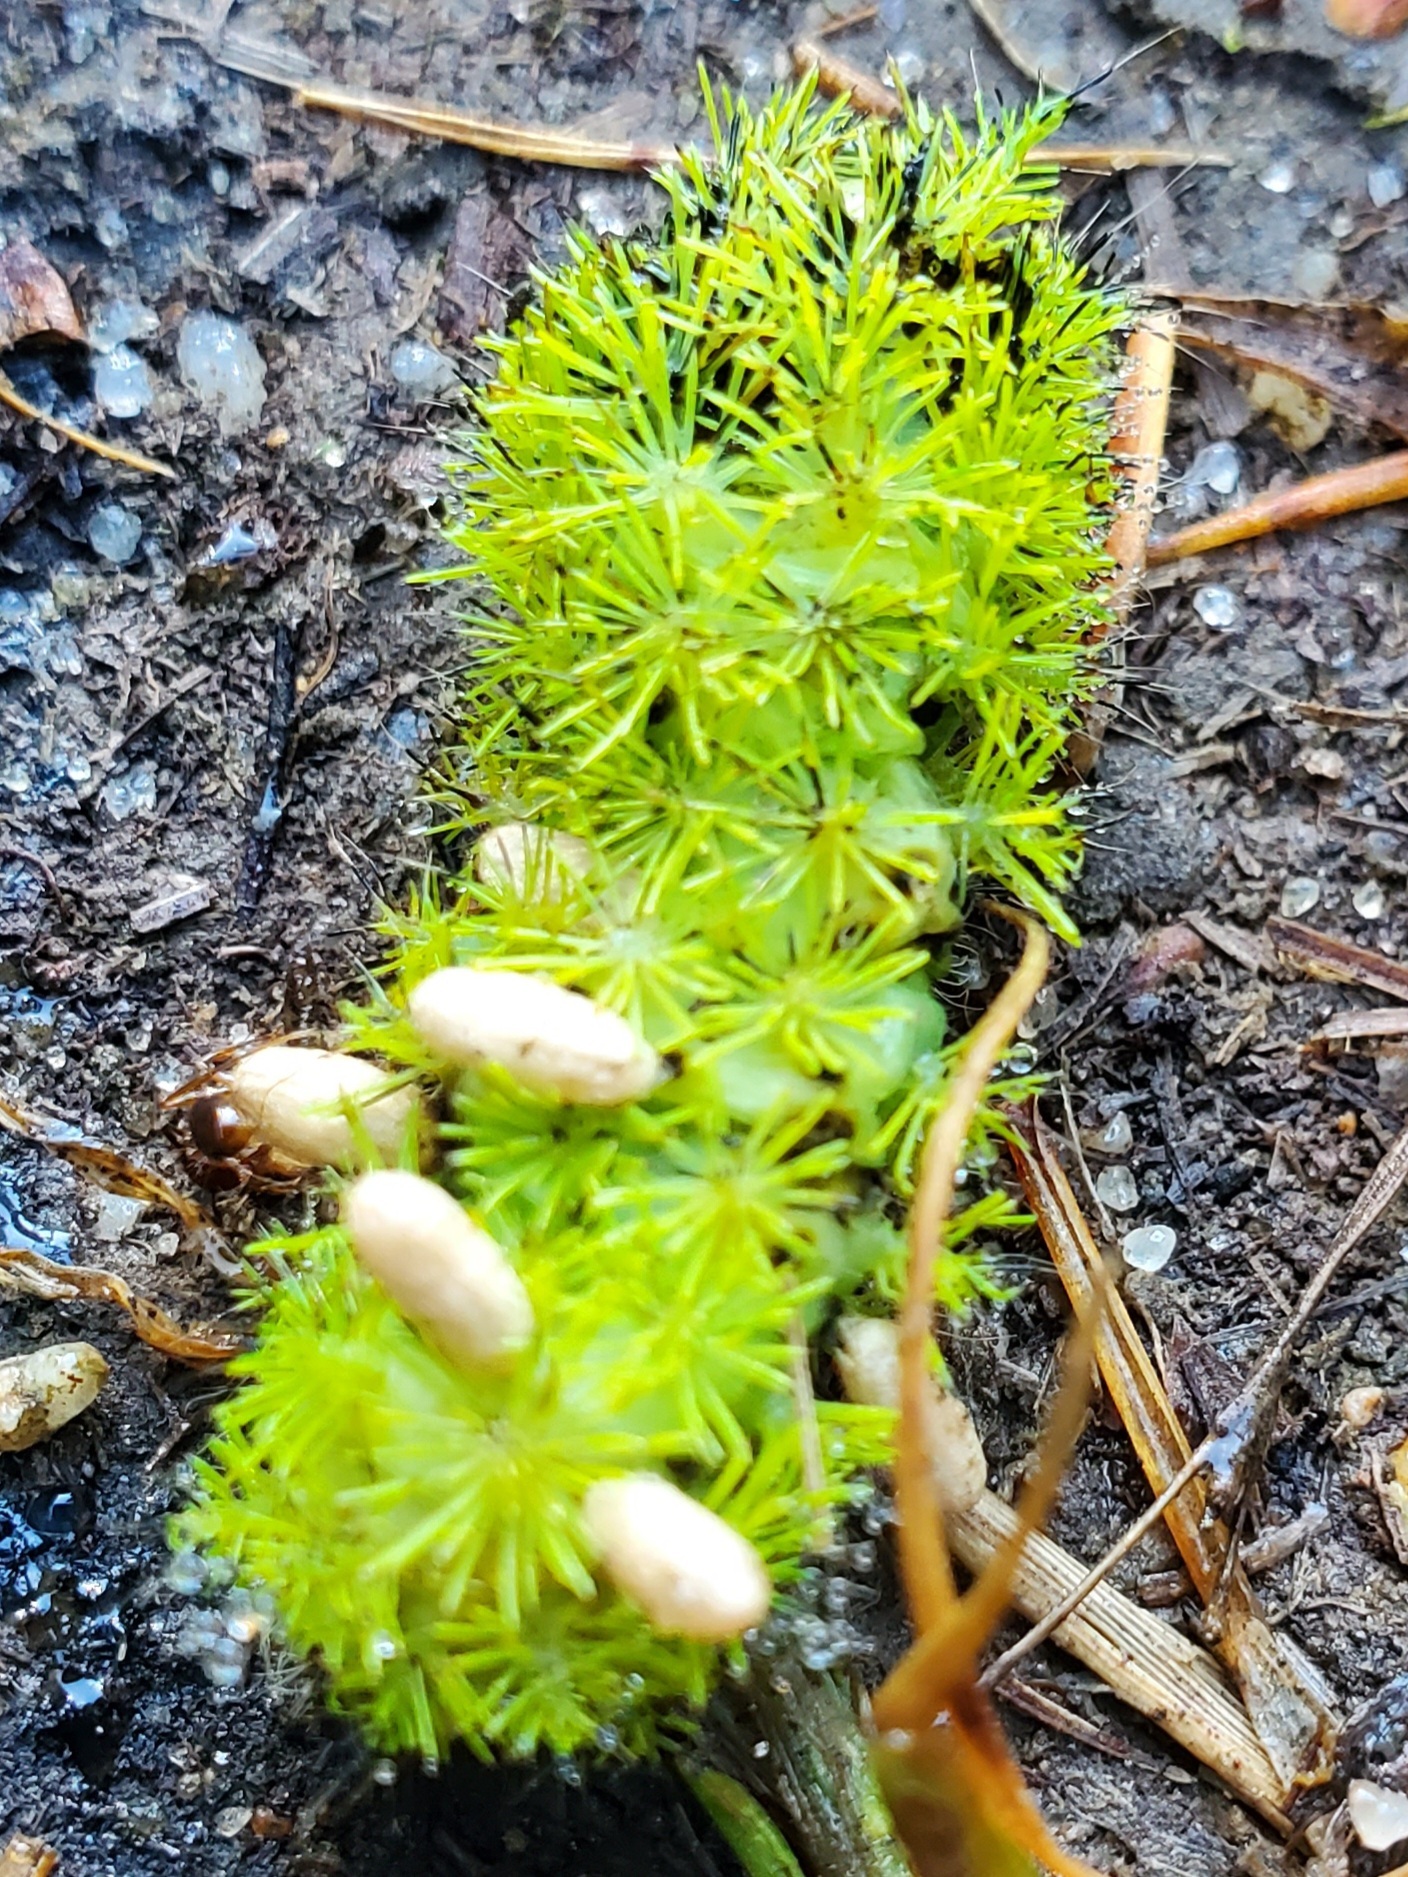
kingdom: Animalia
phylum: Arthropoda
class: Insecta
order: Lepidoptera
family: Saturniidae
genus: Automeris
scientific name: Automeris io
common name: Io moth
